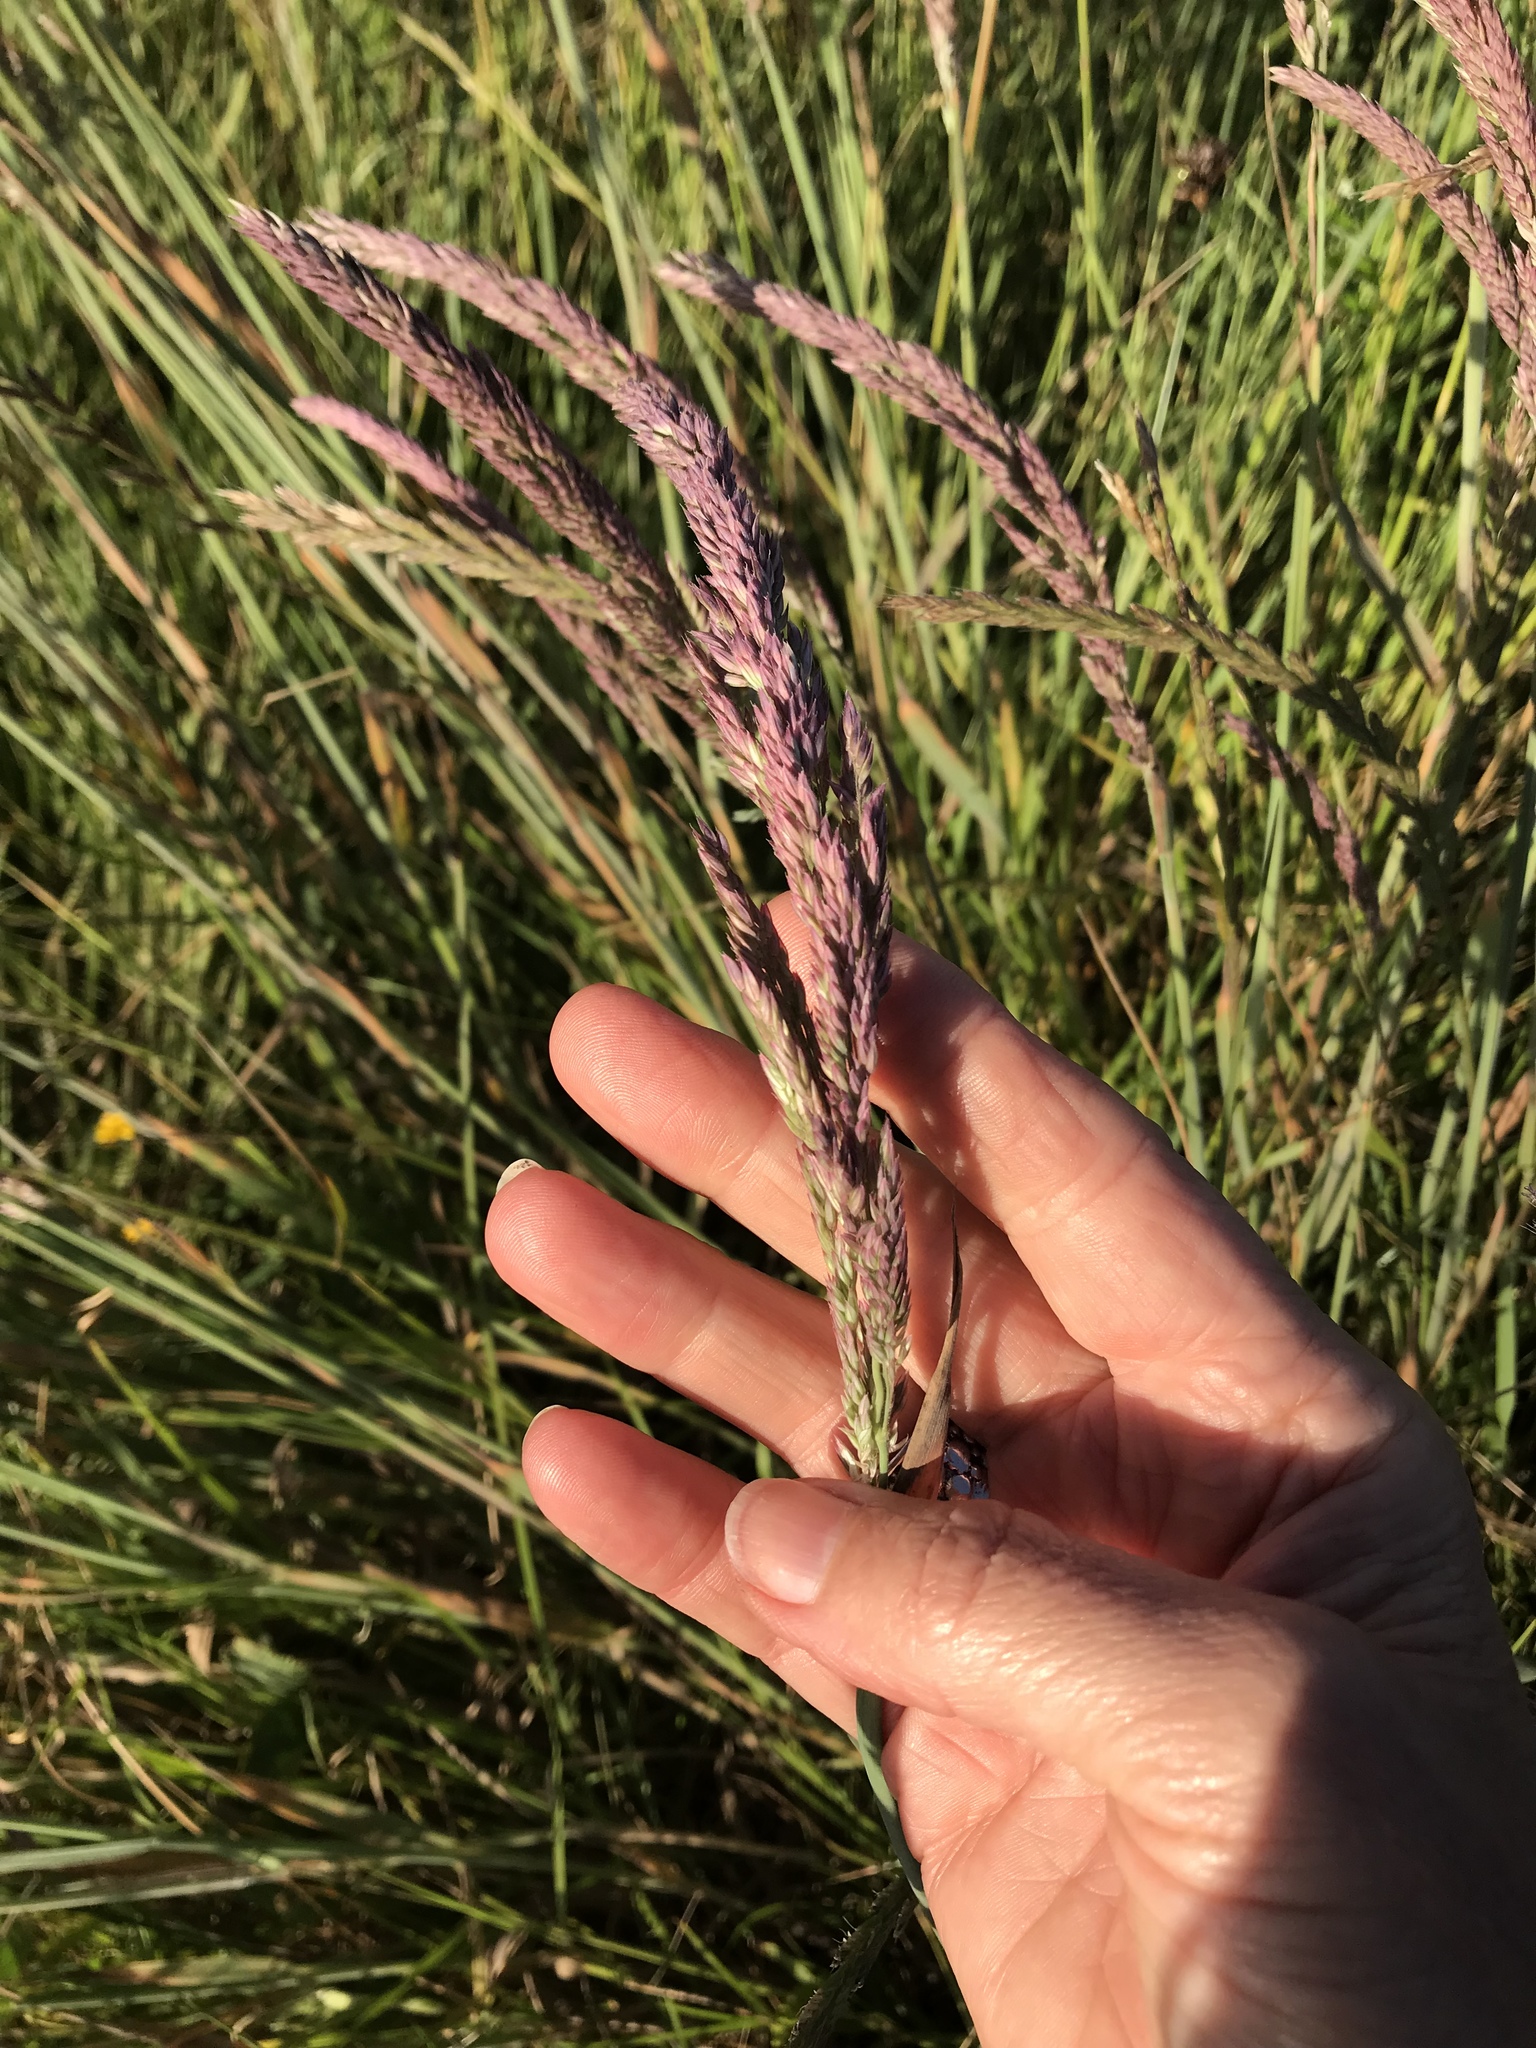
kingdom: Plantae
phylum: Tracheophyta
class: Liliopsida
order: Poales
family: Poaceae
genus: Holcus
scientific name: Holcus lanatus
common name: Yorkshire-fog
